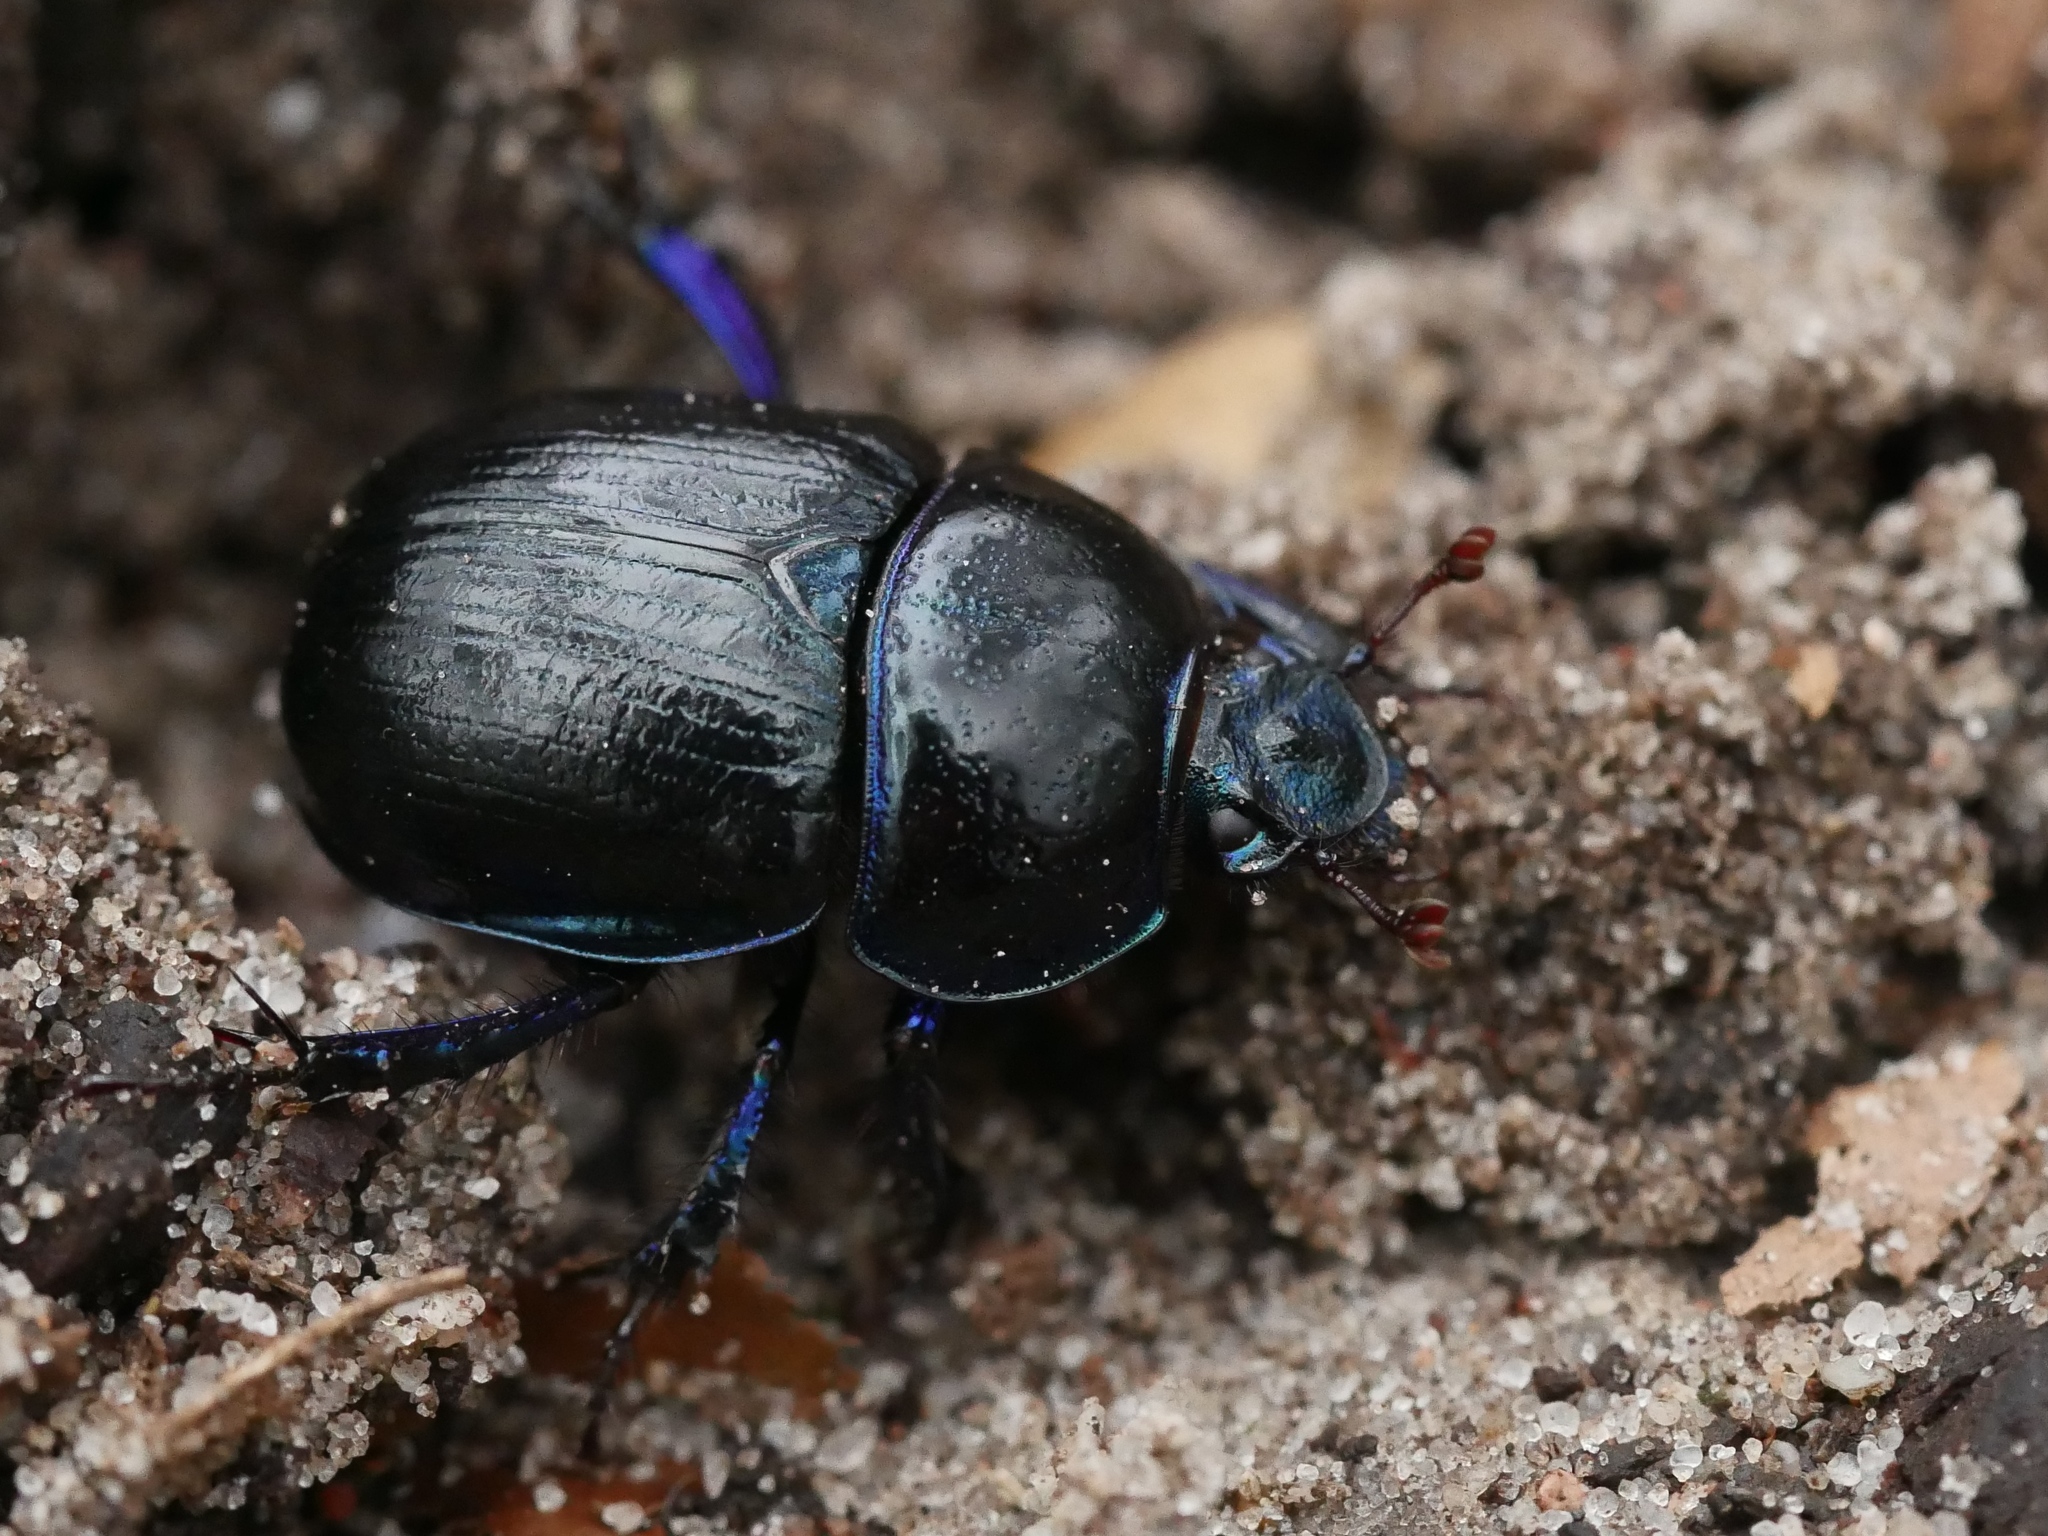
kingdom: Animalia
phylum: Arthropoda
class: Insecta
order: Coleoptera
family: Geotrupidae
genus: Anoplotrupes
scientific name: Anoplotrupes stercorosus
